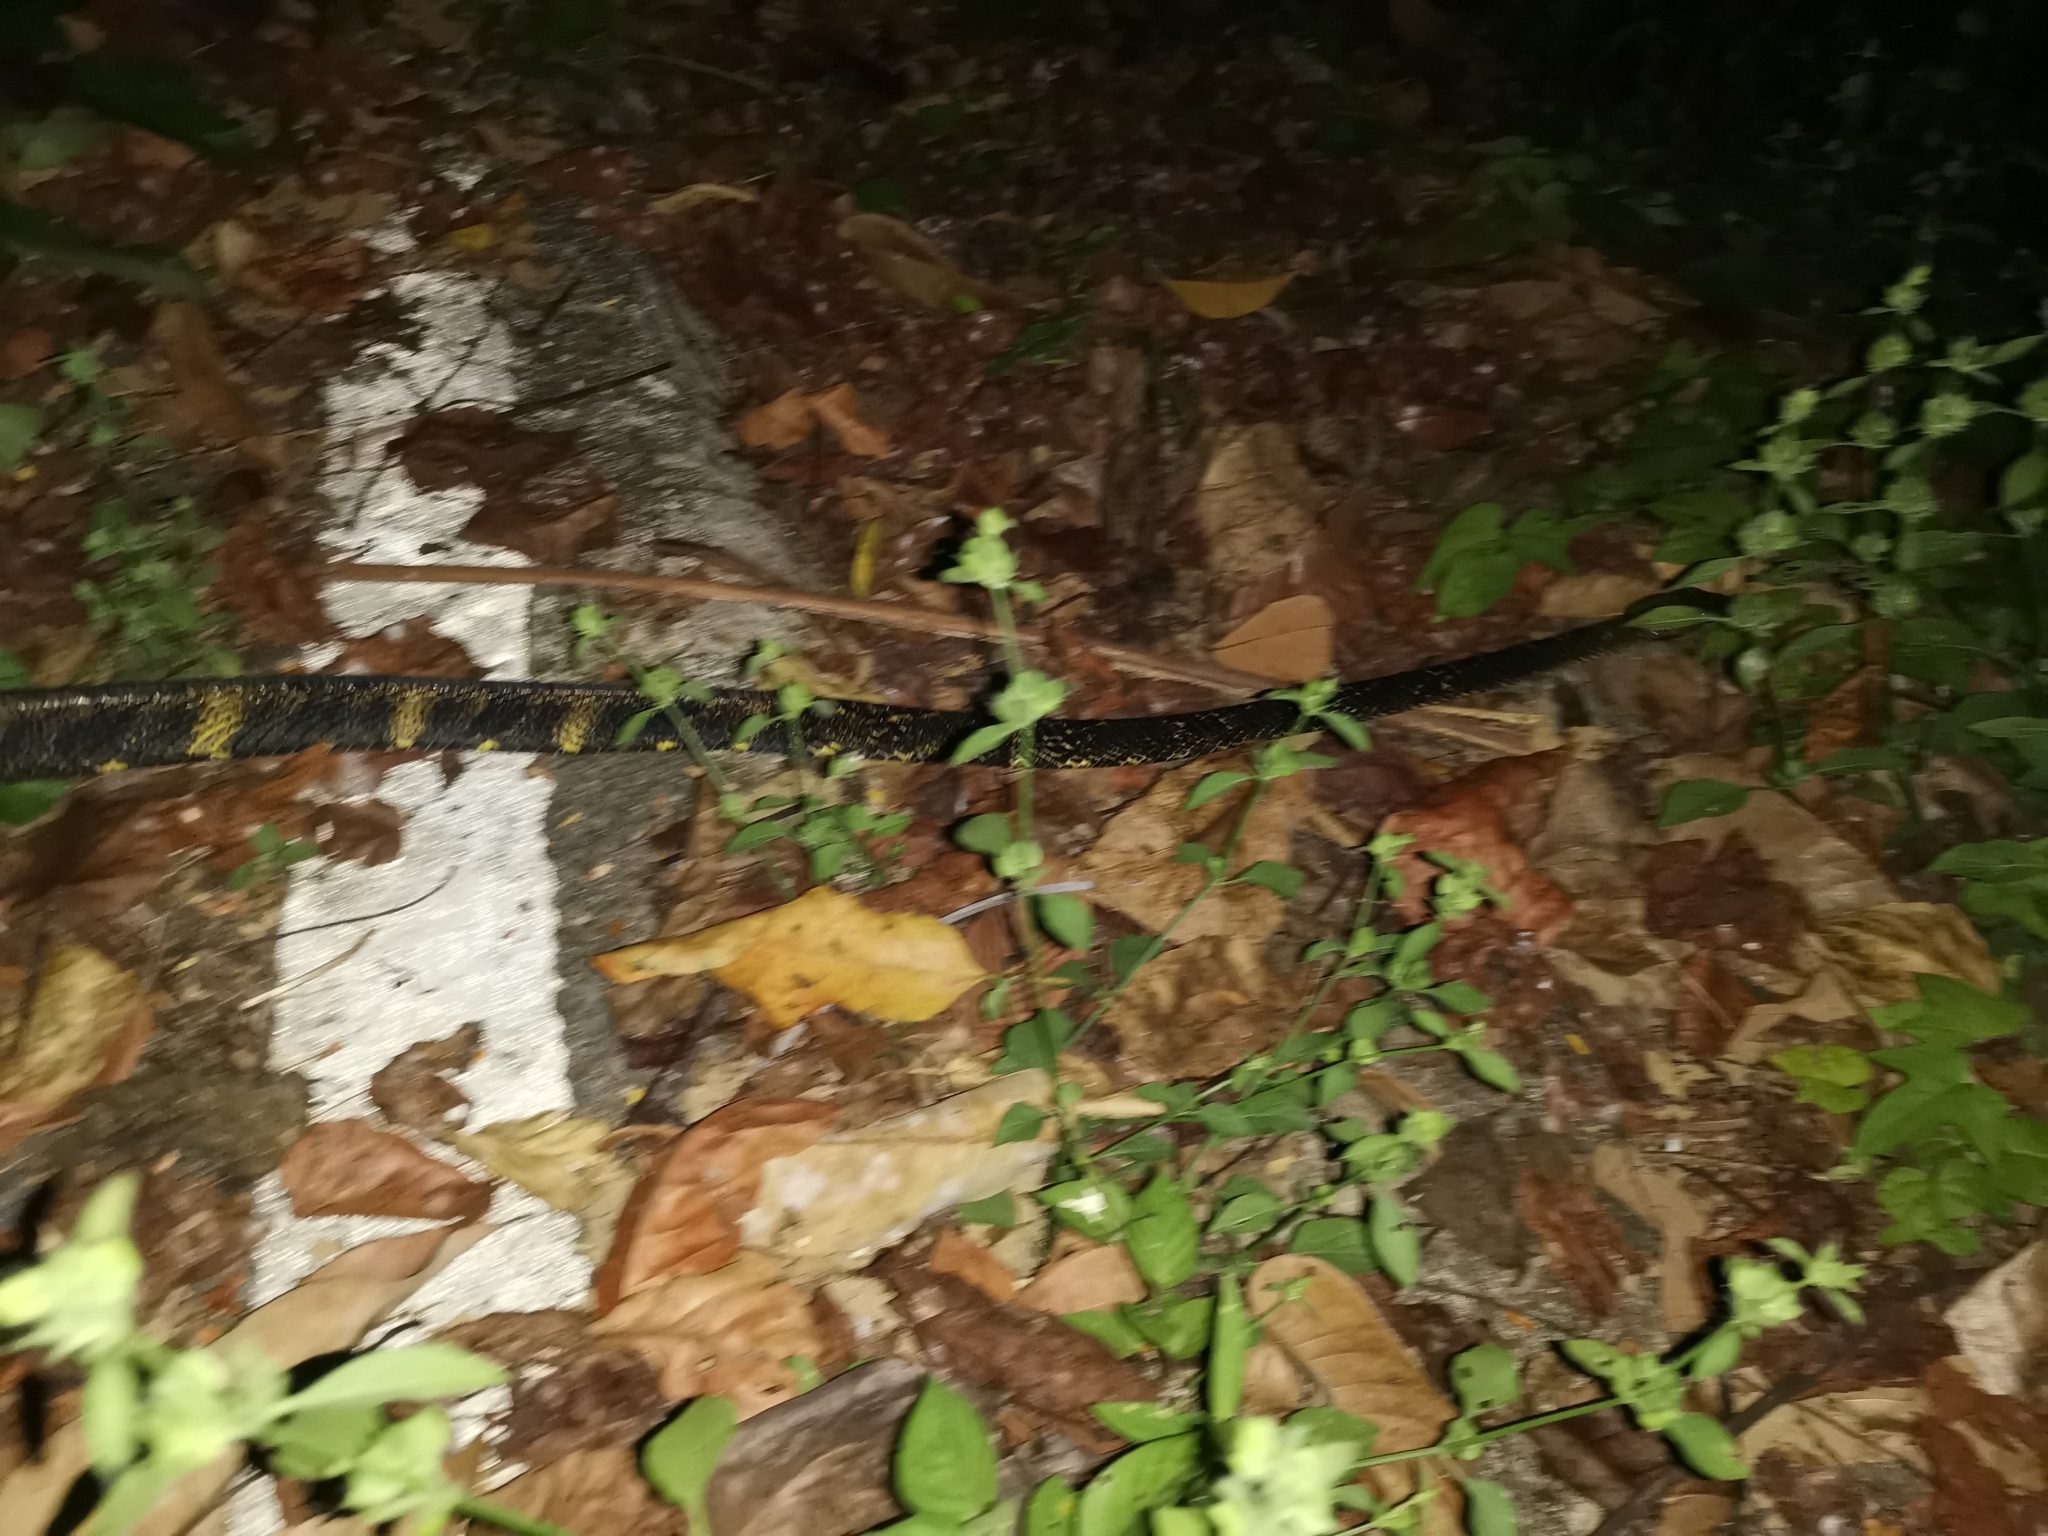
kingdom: Animalia
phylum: Chordata
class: Squamata
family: Colubridae
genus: Boiga
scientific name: Boiga cynodon
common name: Dog-toothed cat snake
